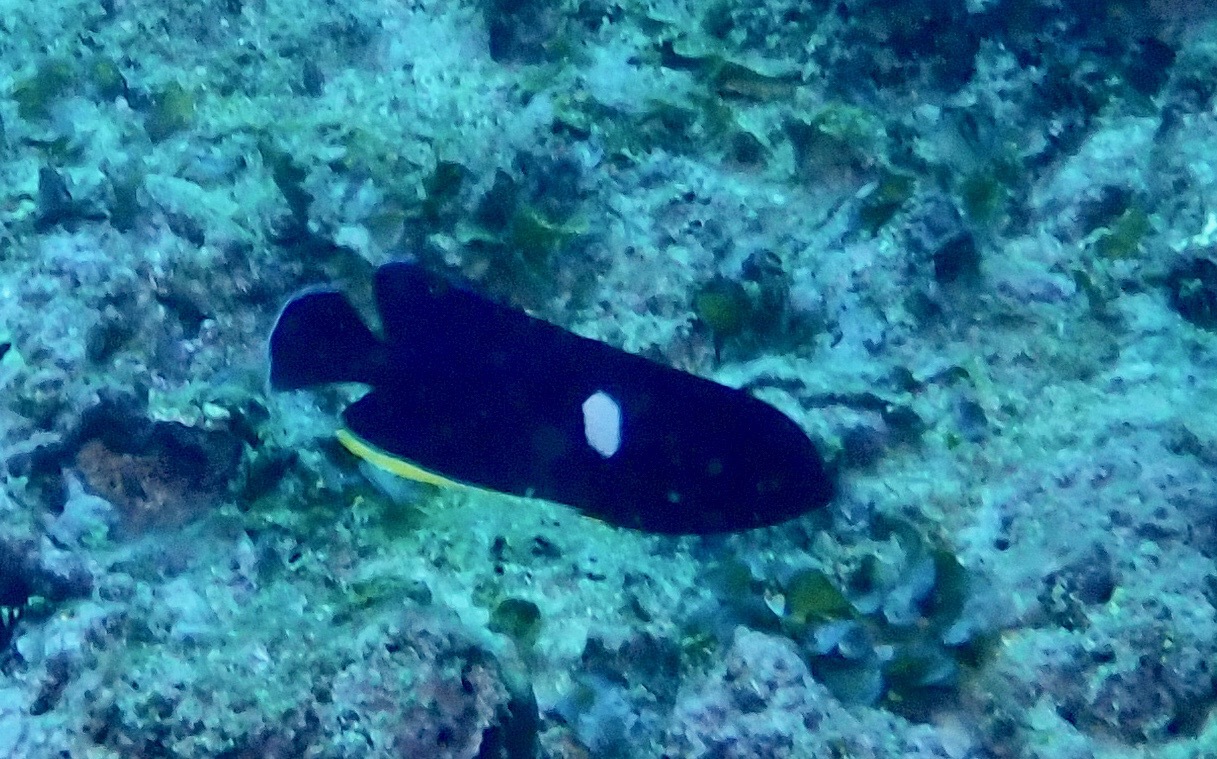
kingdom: Animalia
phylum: Chordata
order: Perciformes
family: Pomacanthidae
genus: Centropyge
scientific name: Centropyge tibicen
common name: Keyhole angelfish
